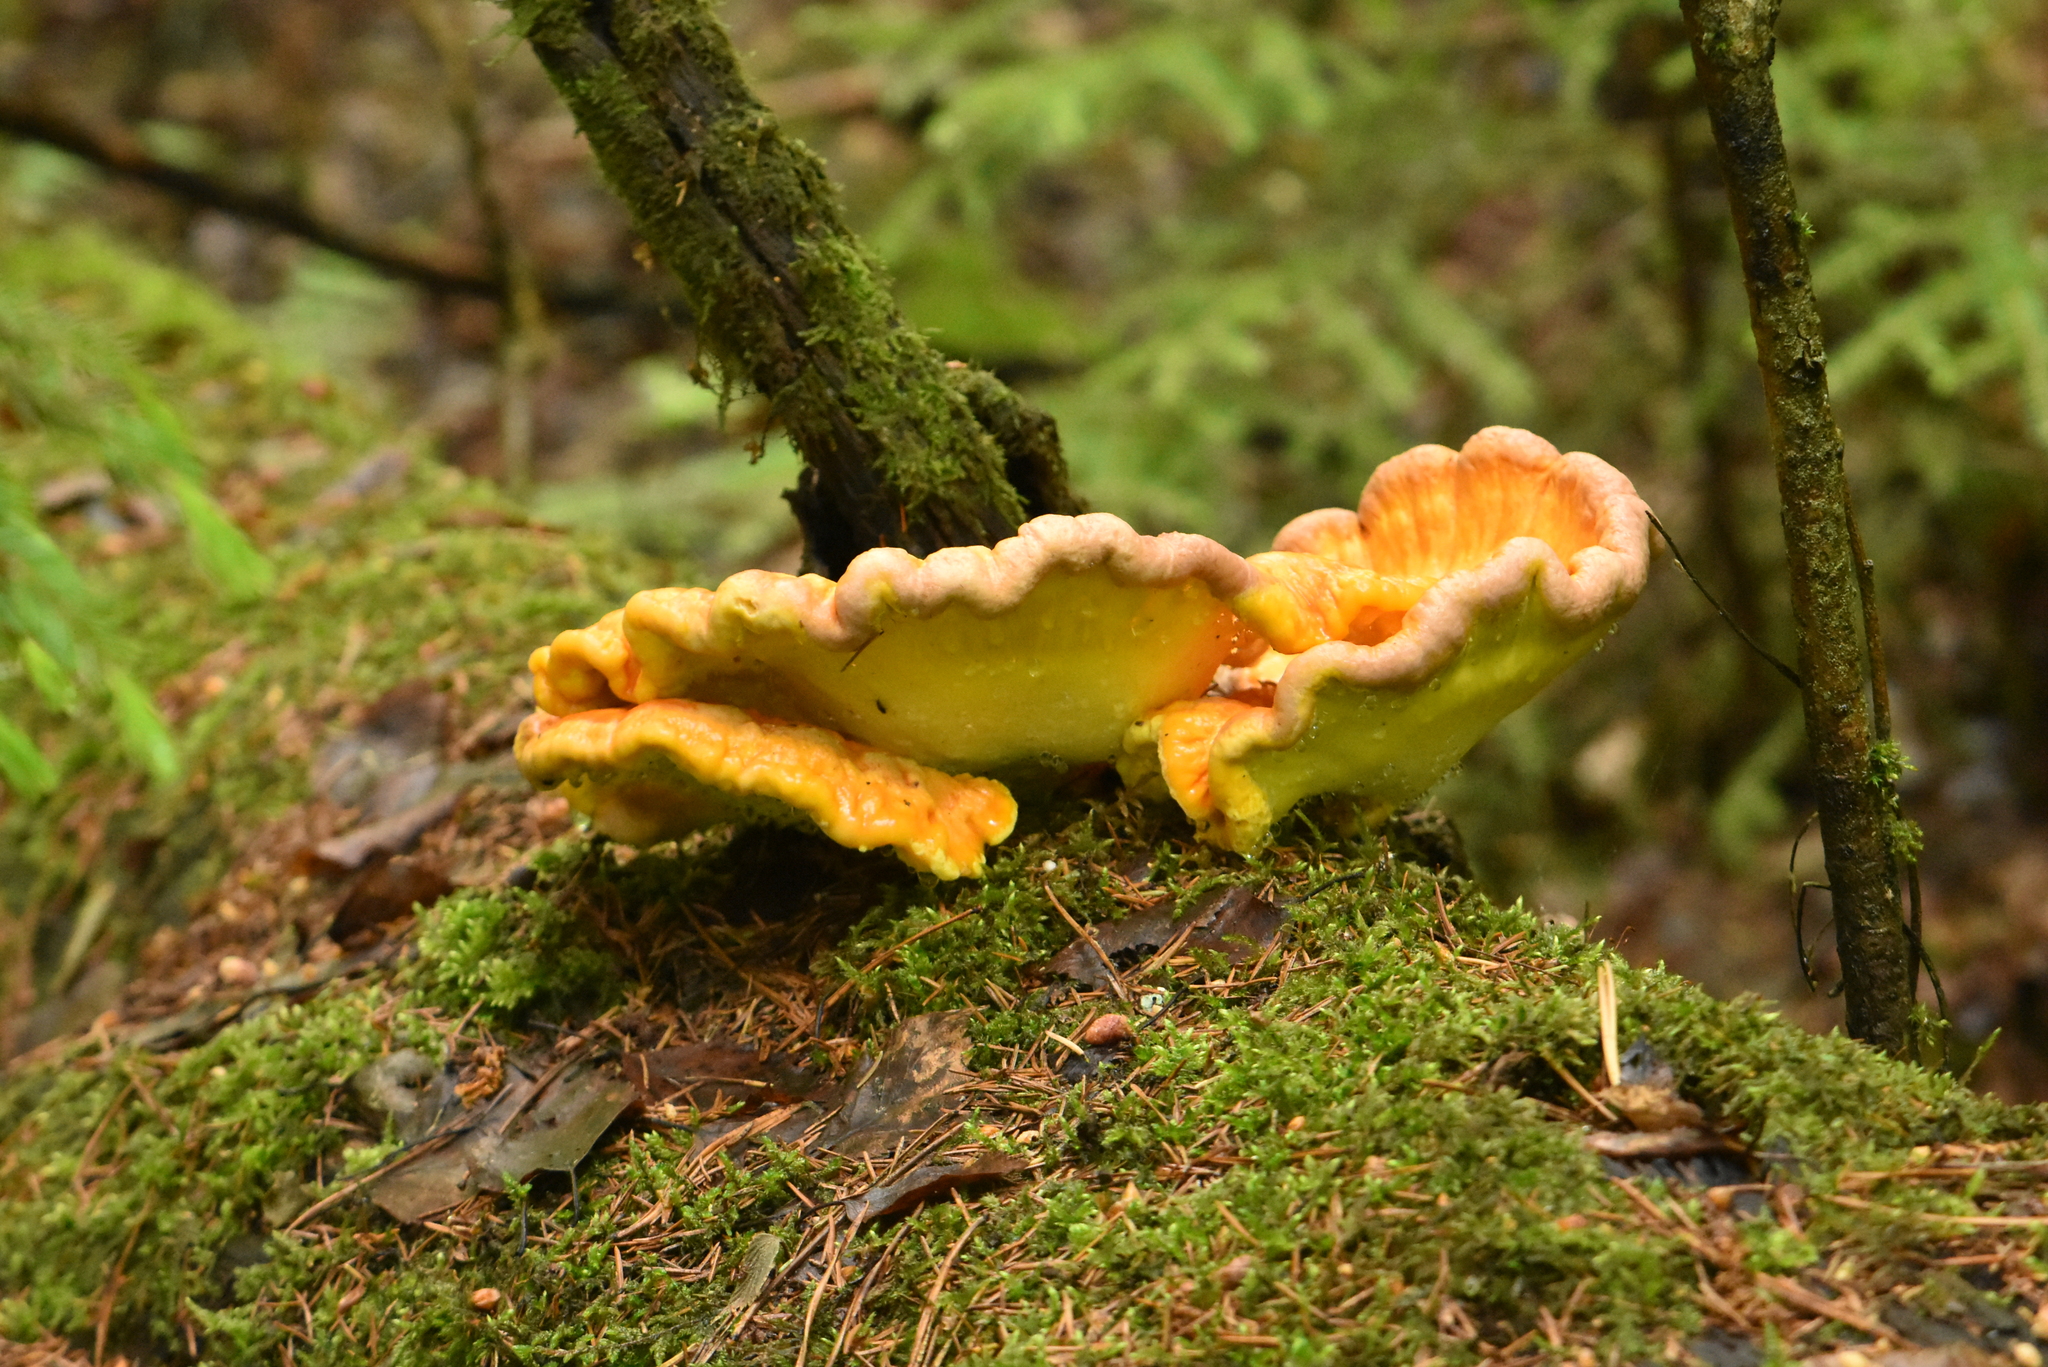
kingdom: Fungi
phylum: Basidiomycota
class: Agaricomycetes
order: Polyporales
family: Laetiporaceae
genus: Laetiporus
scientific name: Laetiporus sulphureus
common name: Chicken of the woods
